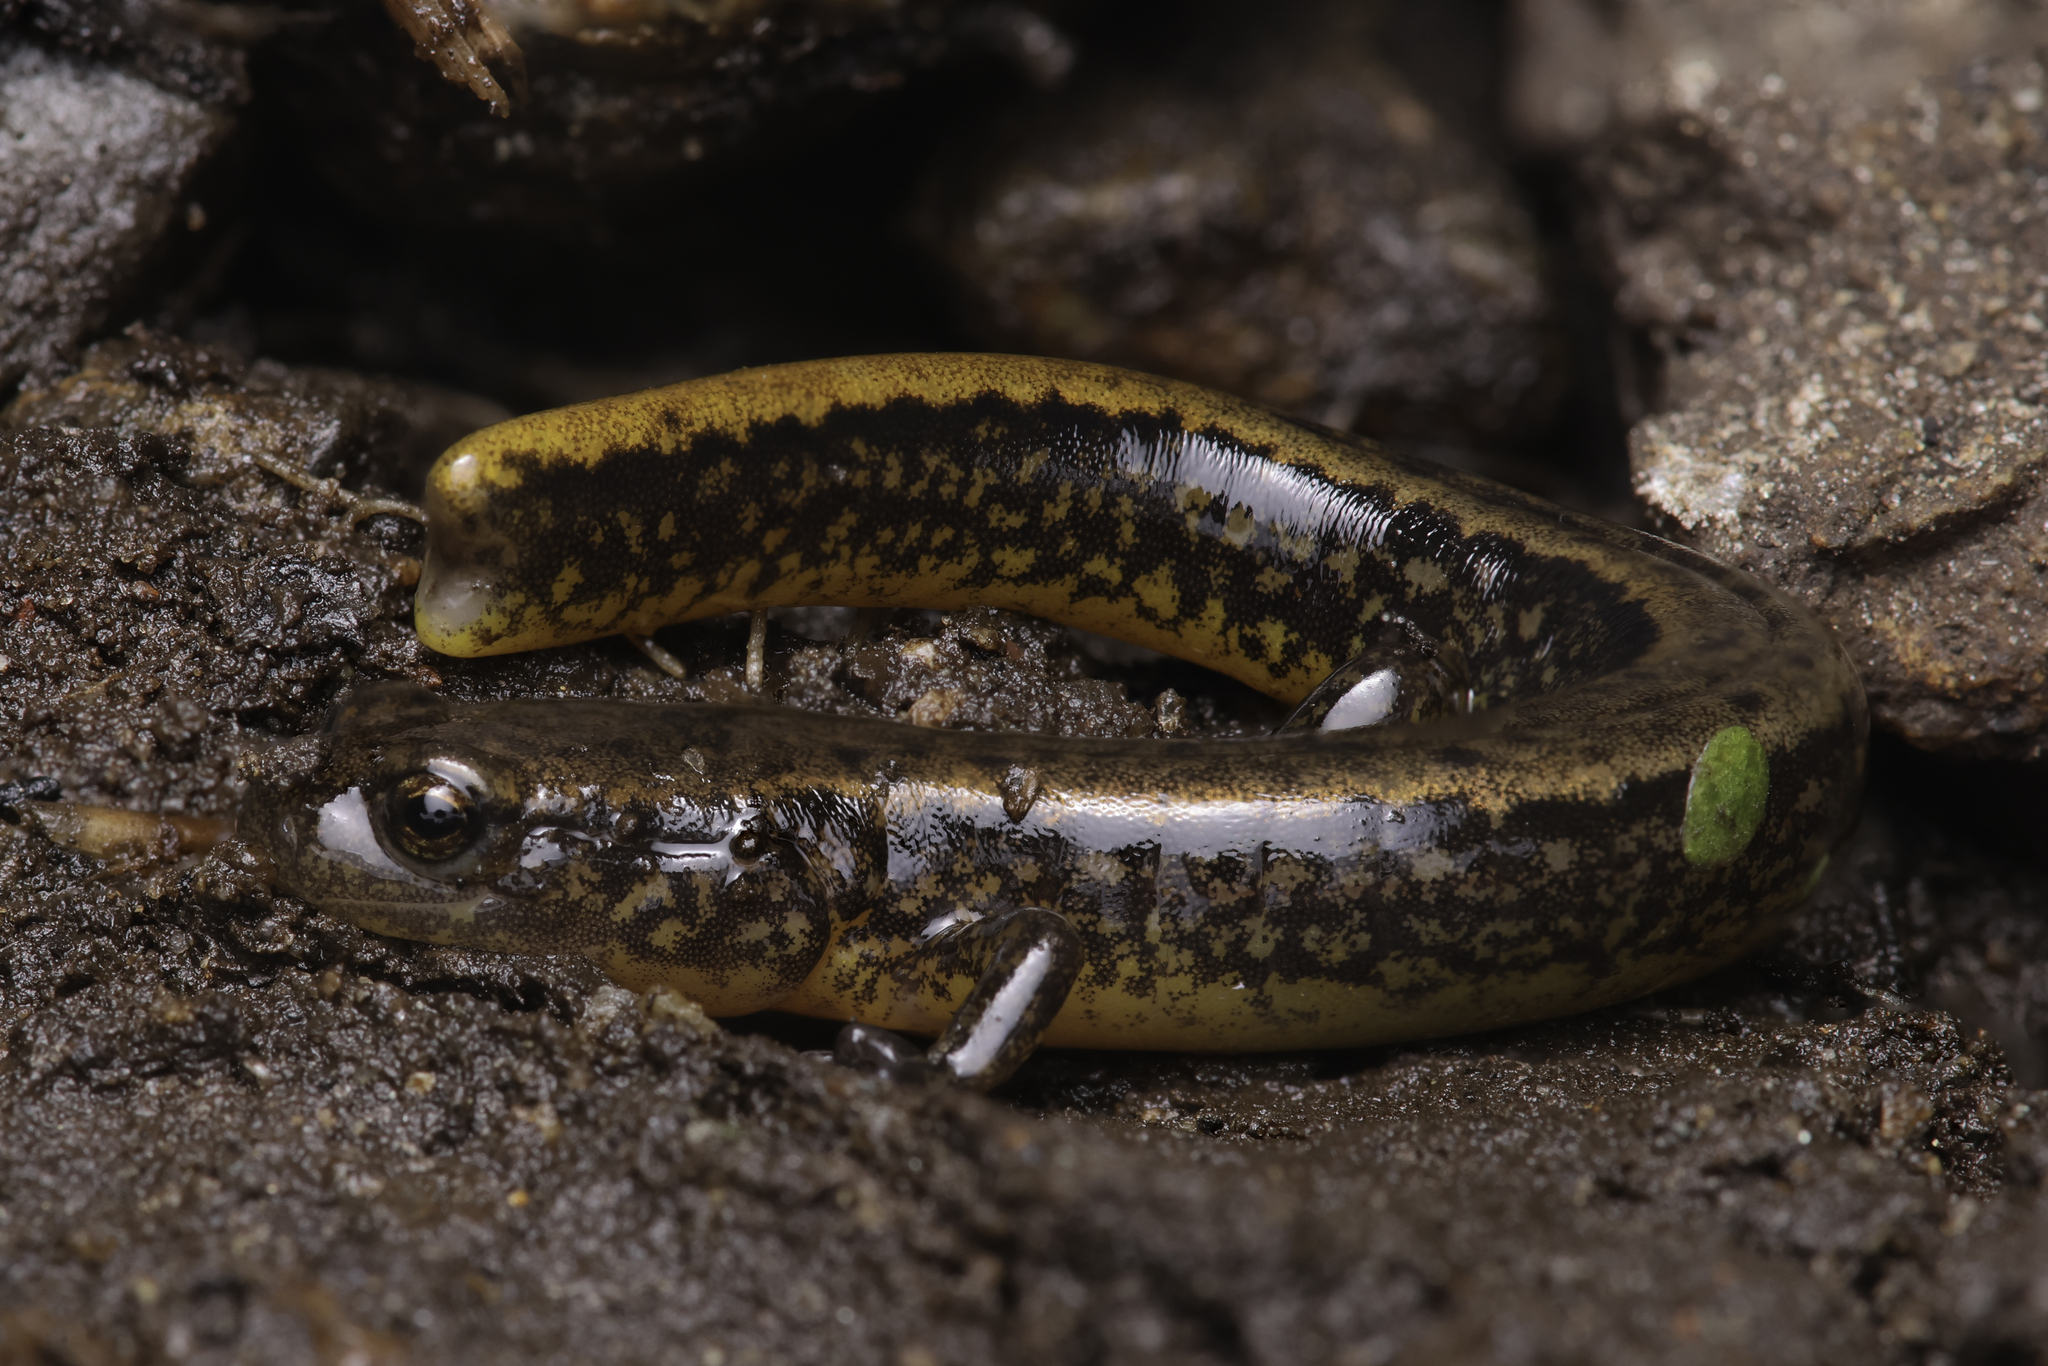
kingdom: Animalia
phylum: Chordata
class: Amphibia
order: Caudata
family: Plethodontidae
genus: Eurycea
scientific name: Eurycea bislineata
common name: Northern two-lined salamander
